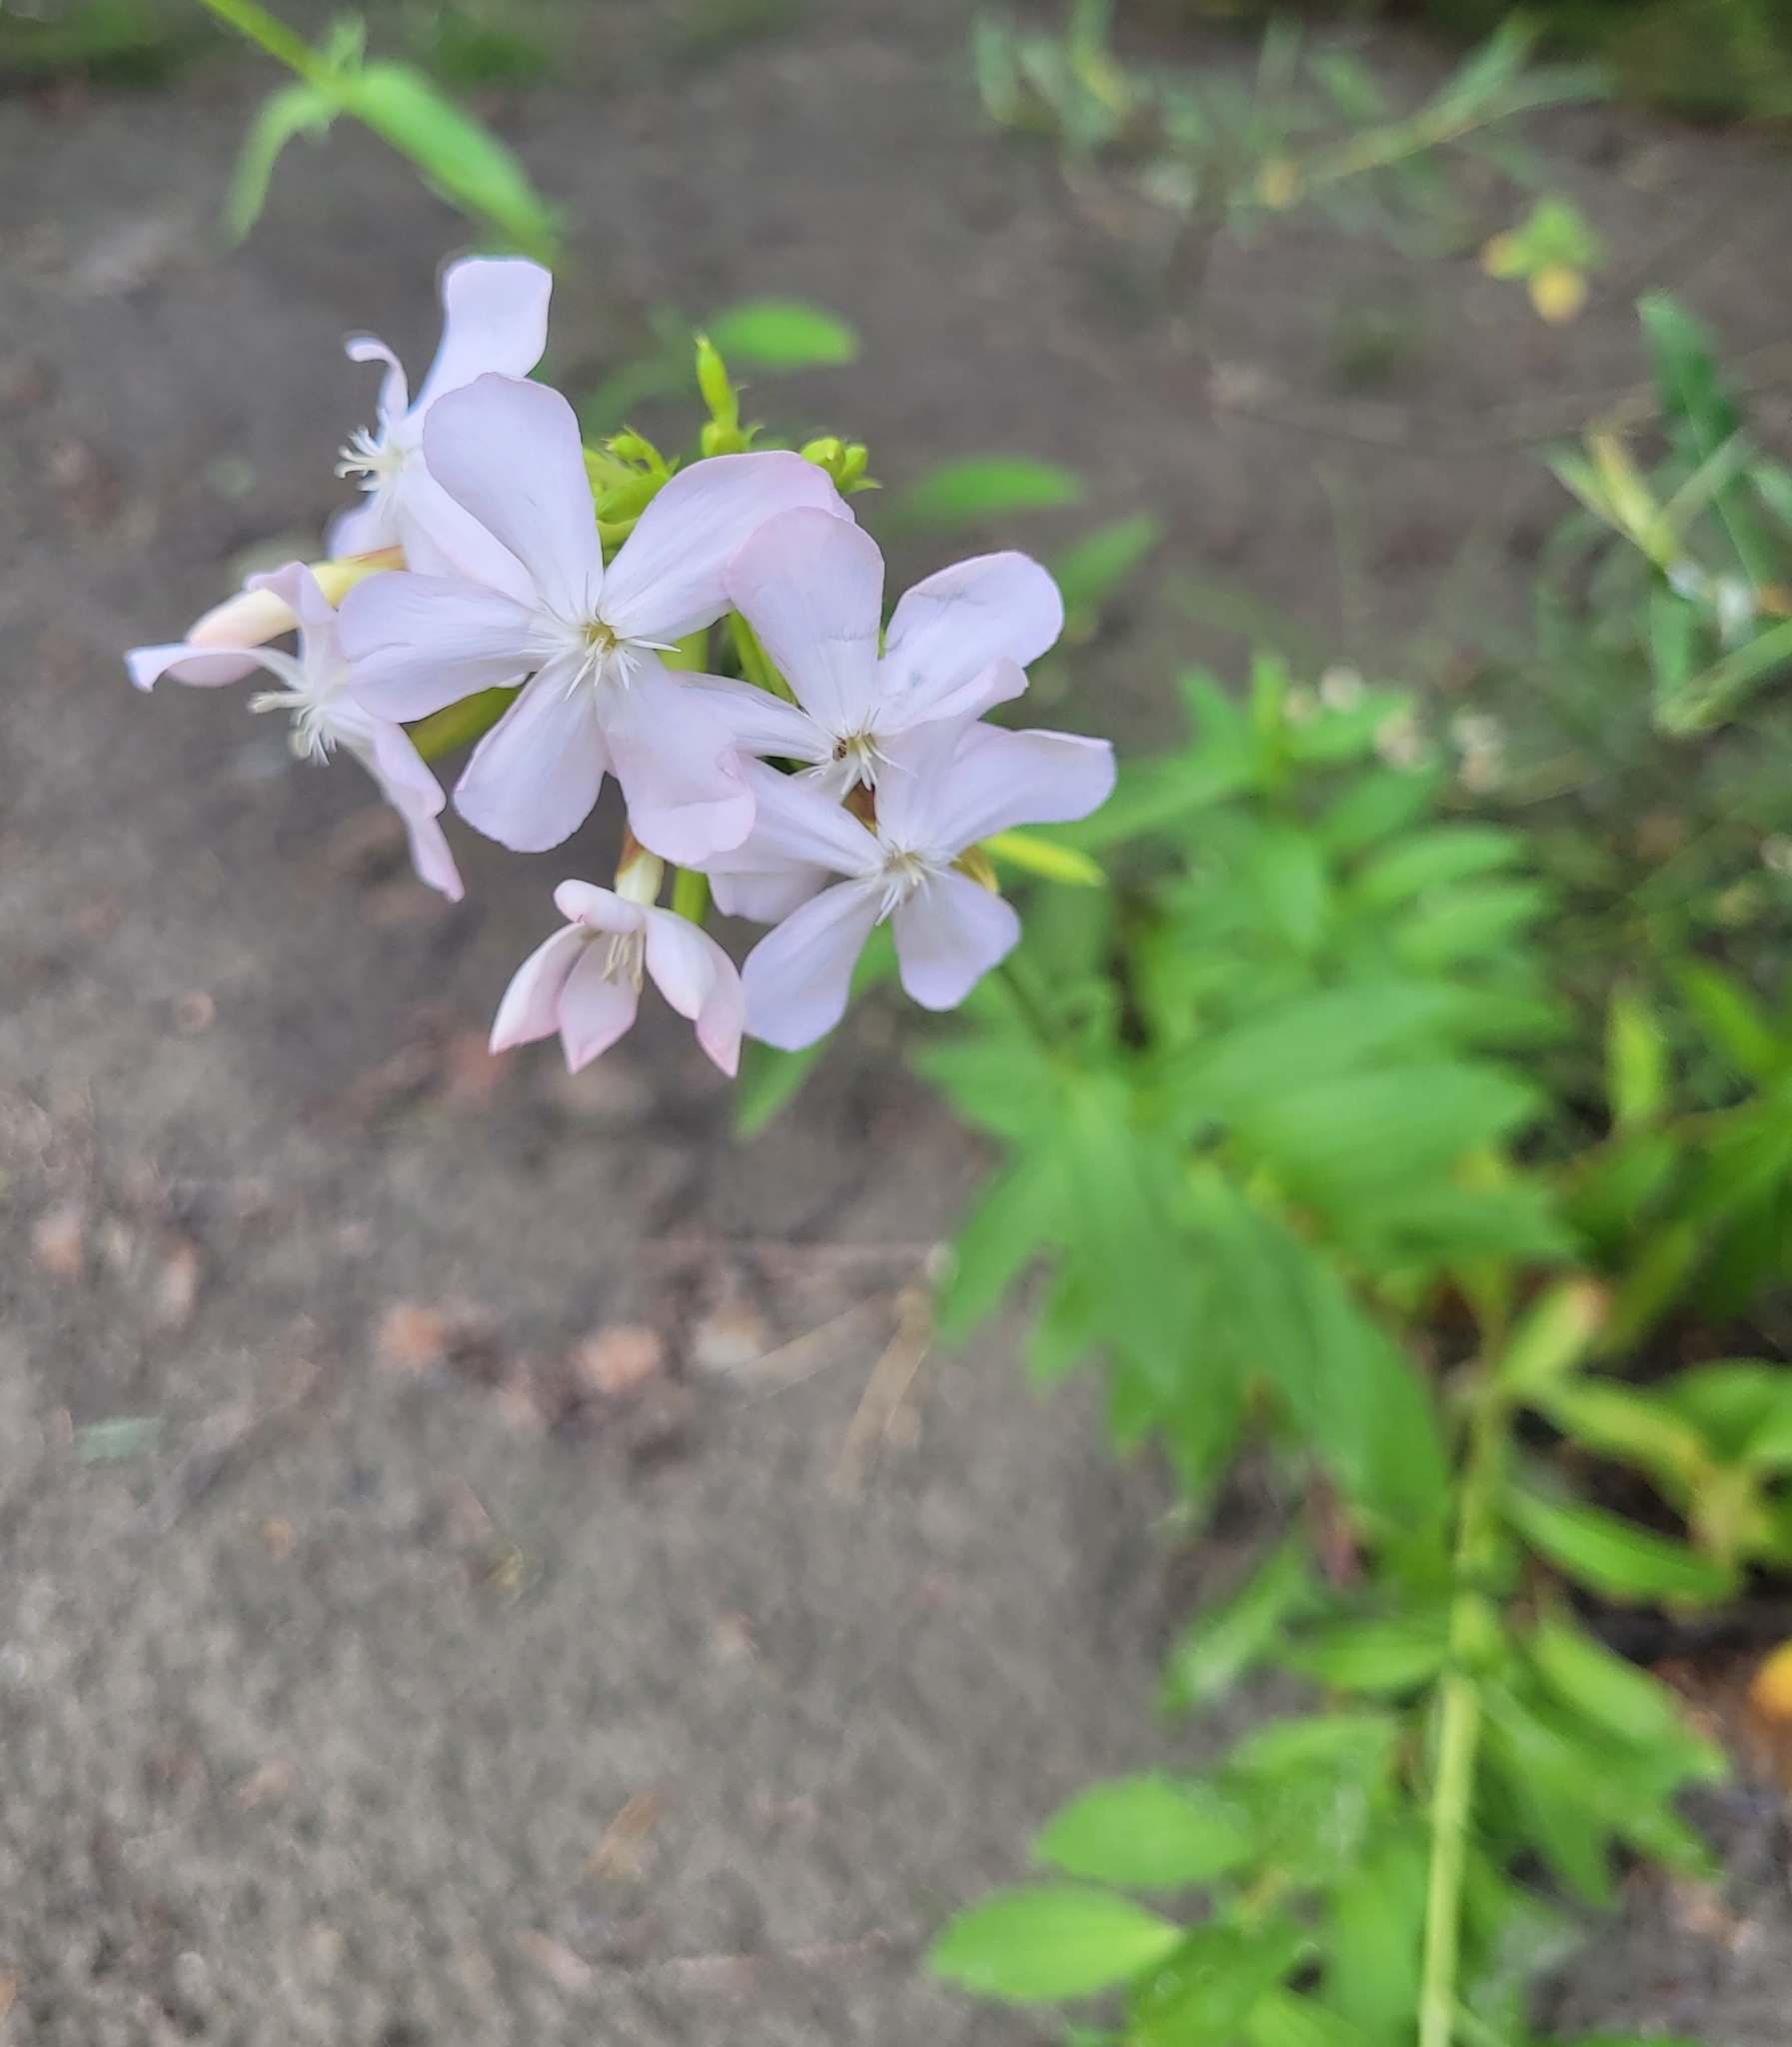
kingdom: Plantae
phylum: Tracheophyta
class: Magnoliopsida
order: Caryophyllales
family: Caryophyllaceae
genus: Saponaria
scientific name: Saponaria officinalis
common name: Soapwort
